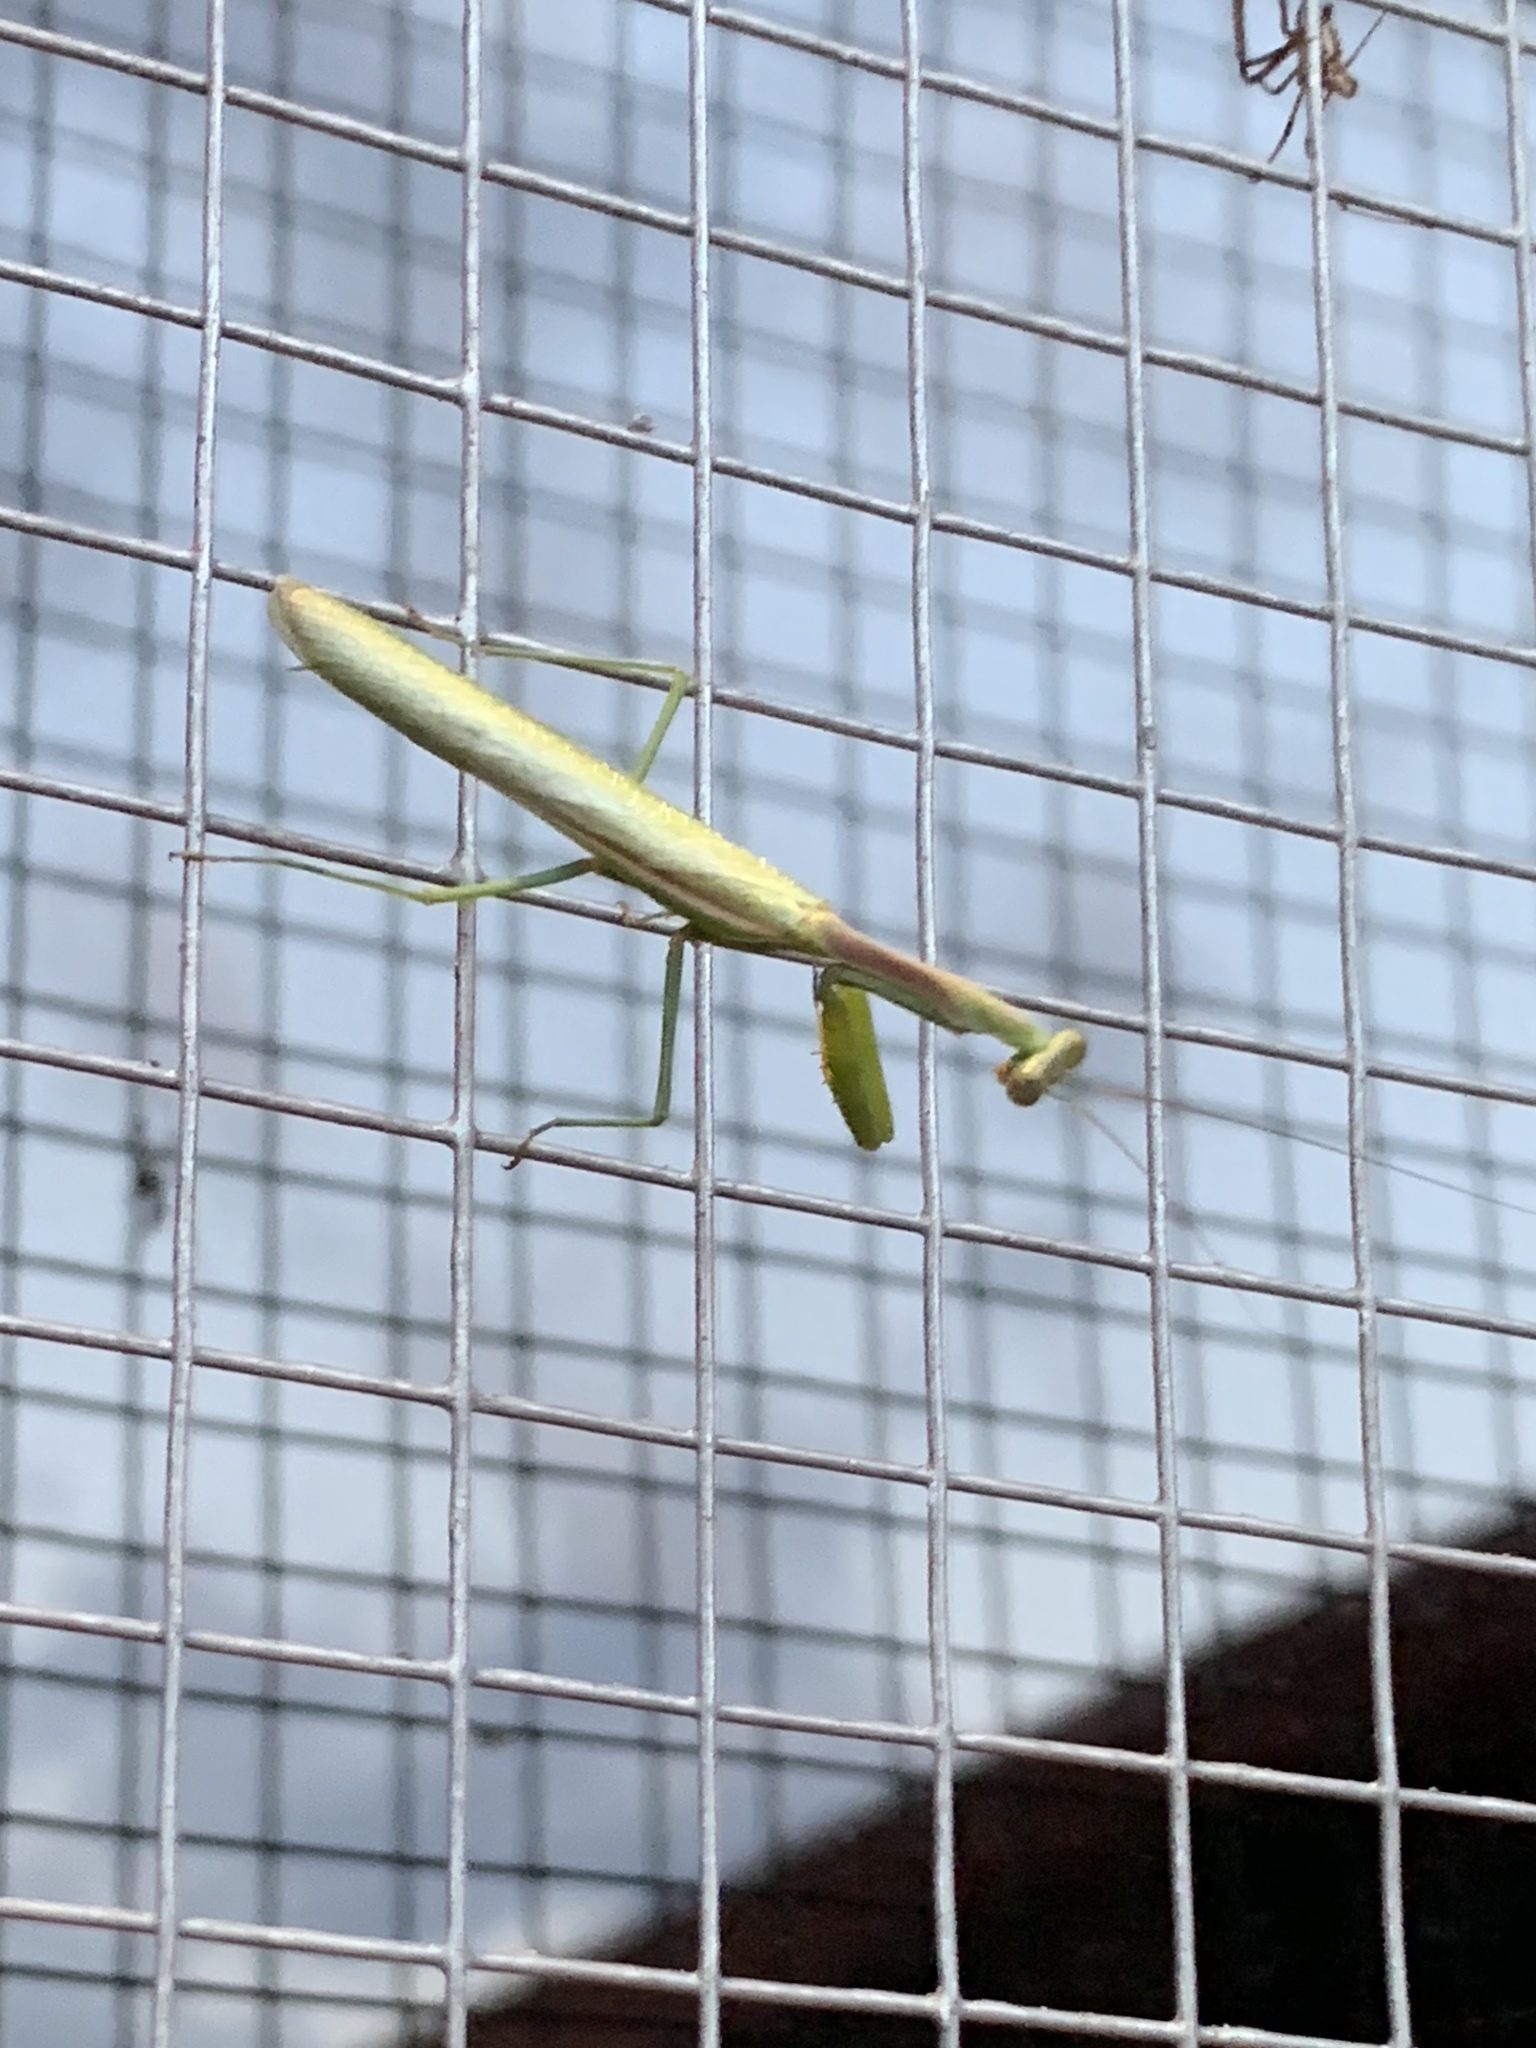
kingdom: Animalia
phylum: Arthropoda
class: Insecta
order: Mantodea
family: Mantidae
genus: Stagmomantis
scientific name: Stagmomantis limbata
